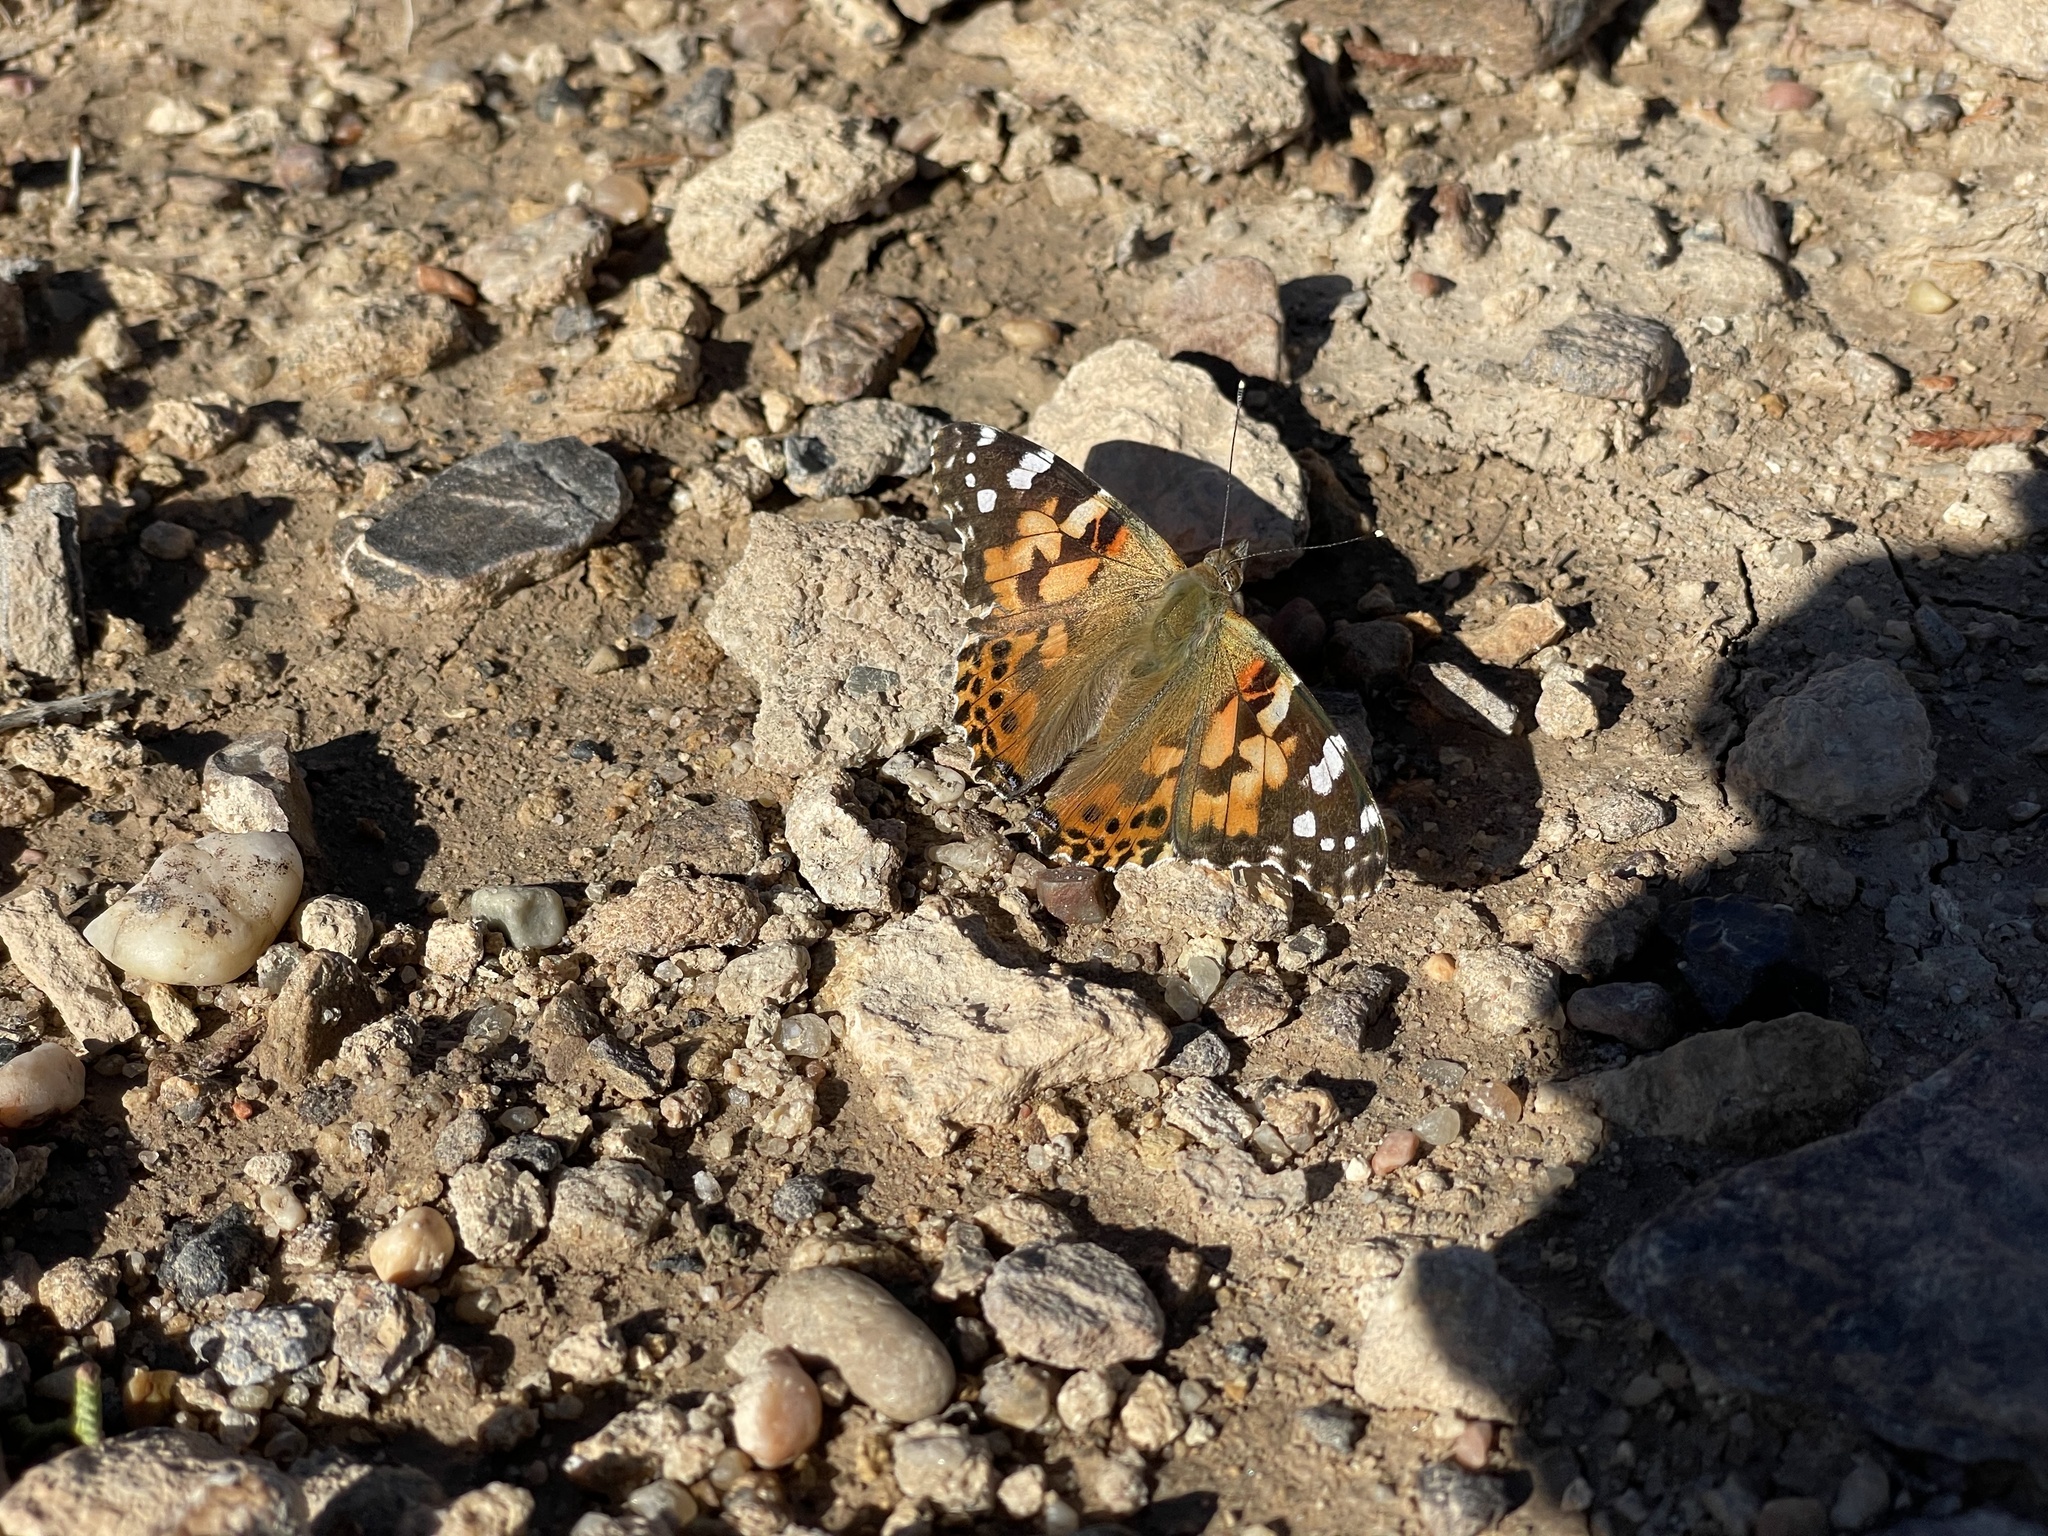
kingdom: Animalia
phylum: Arthropoda
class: Insecta
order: Lepidoptera
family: Nymphalidae
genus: Vanessa
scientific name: Vanessa cardui
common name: Painted lady
